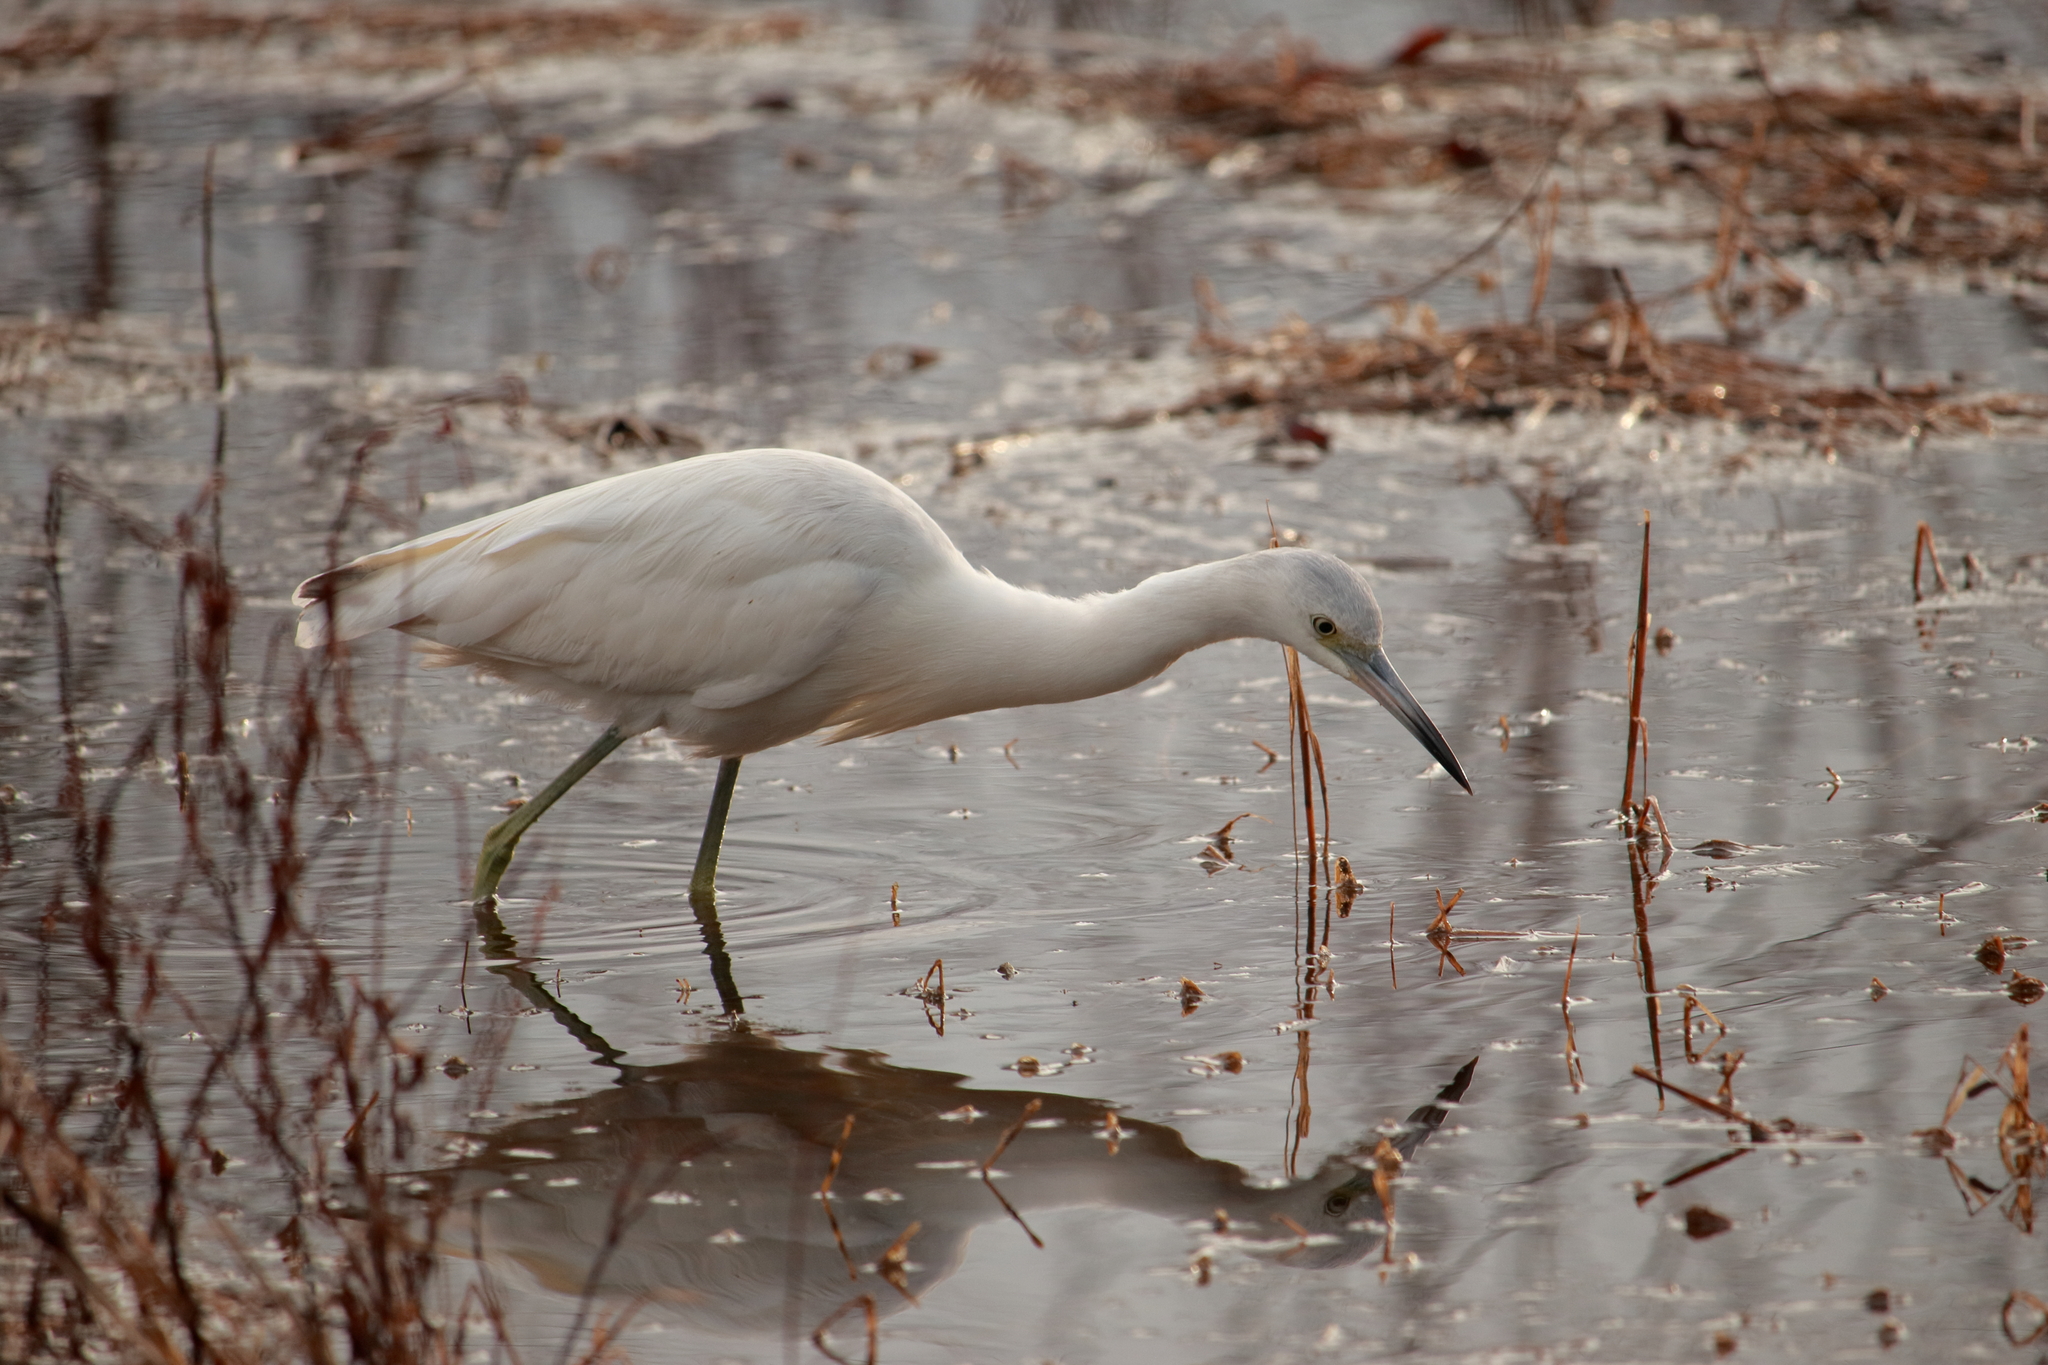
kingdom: Animalia
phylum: Chordata
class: Aves
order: Pelecaniformes
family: Ardeidae
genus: Egretta
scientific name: Egretta caerulea
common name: Little blue heron
